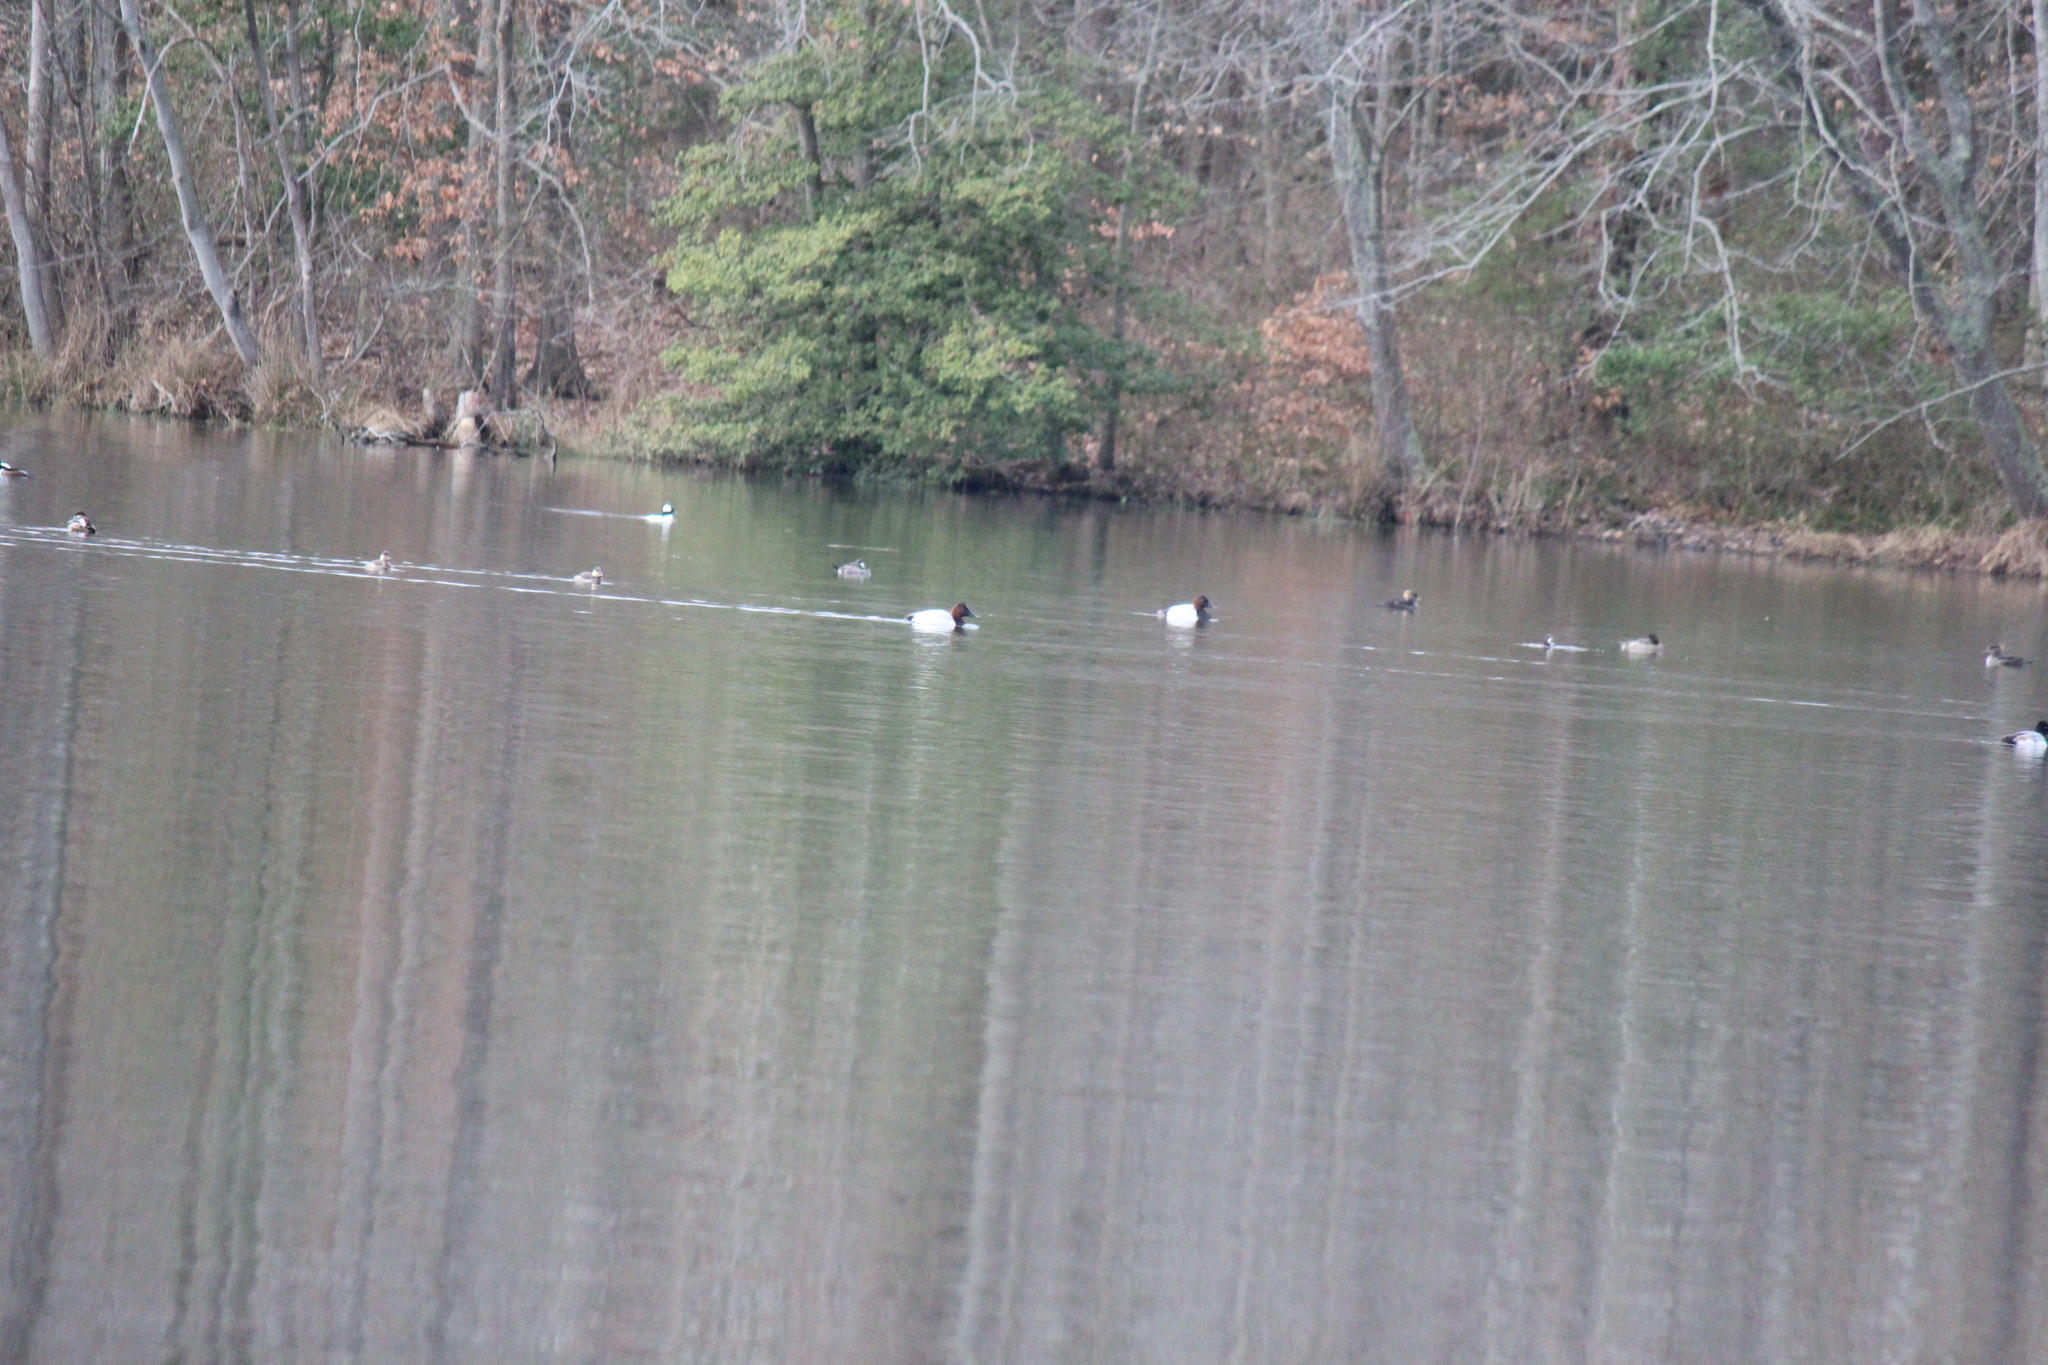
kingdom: Animalia
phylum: Chordata
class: Aves
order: Anseriformes
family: Anatidae
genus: Aythya
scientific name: Aythya valisineria
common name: Canvasback
